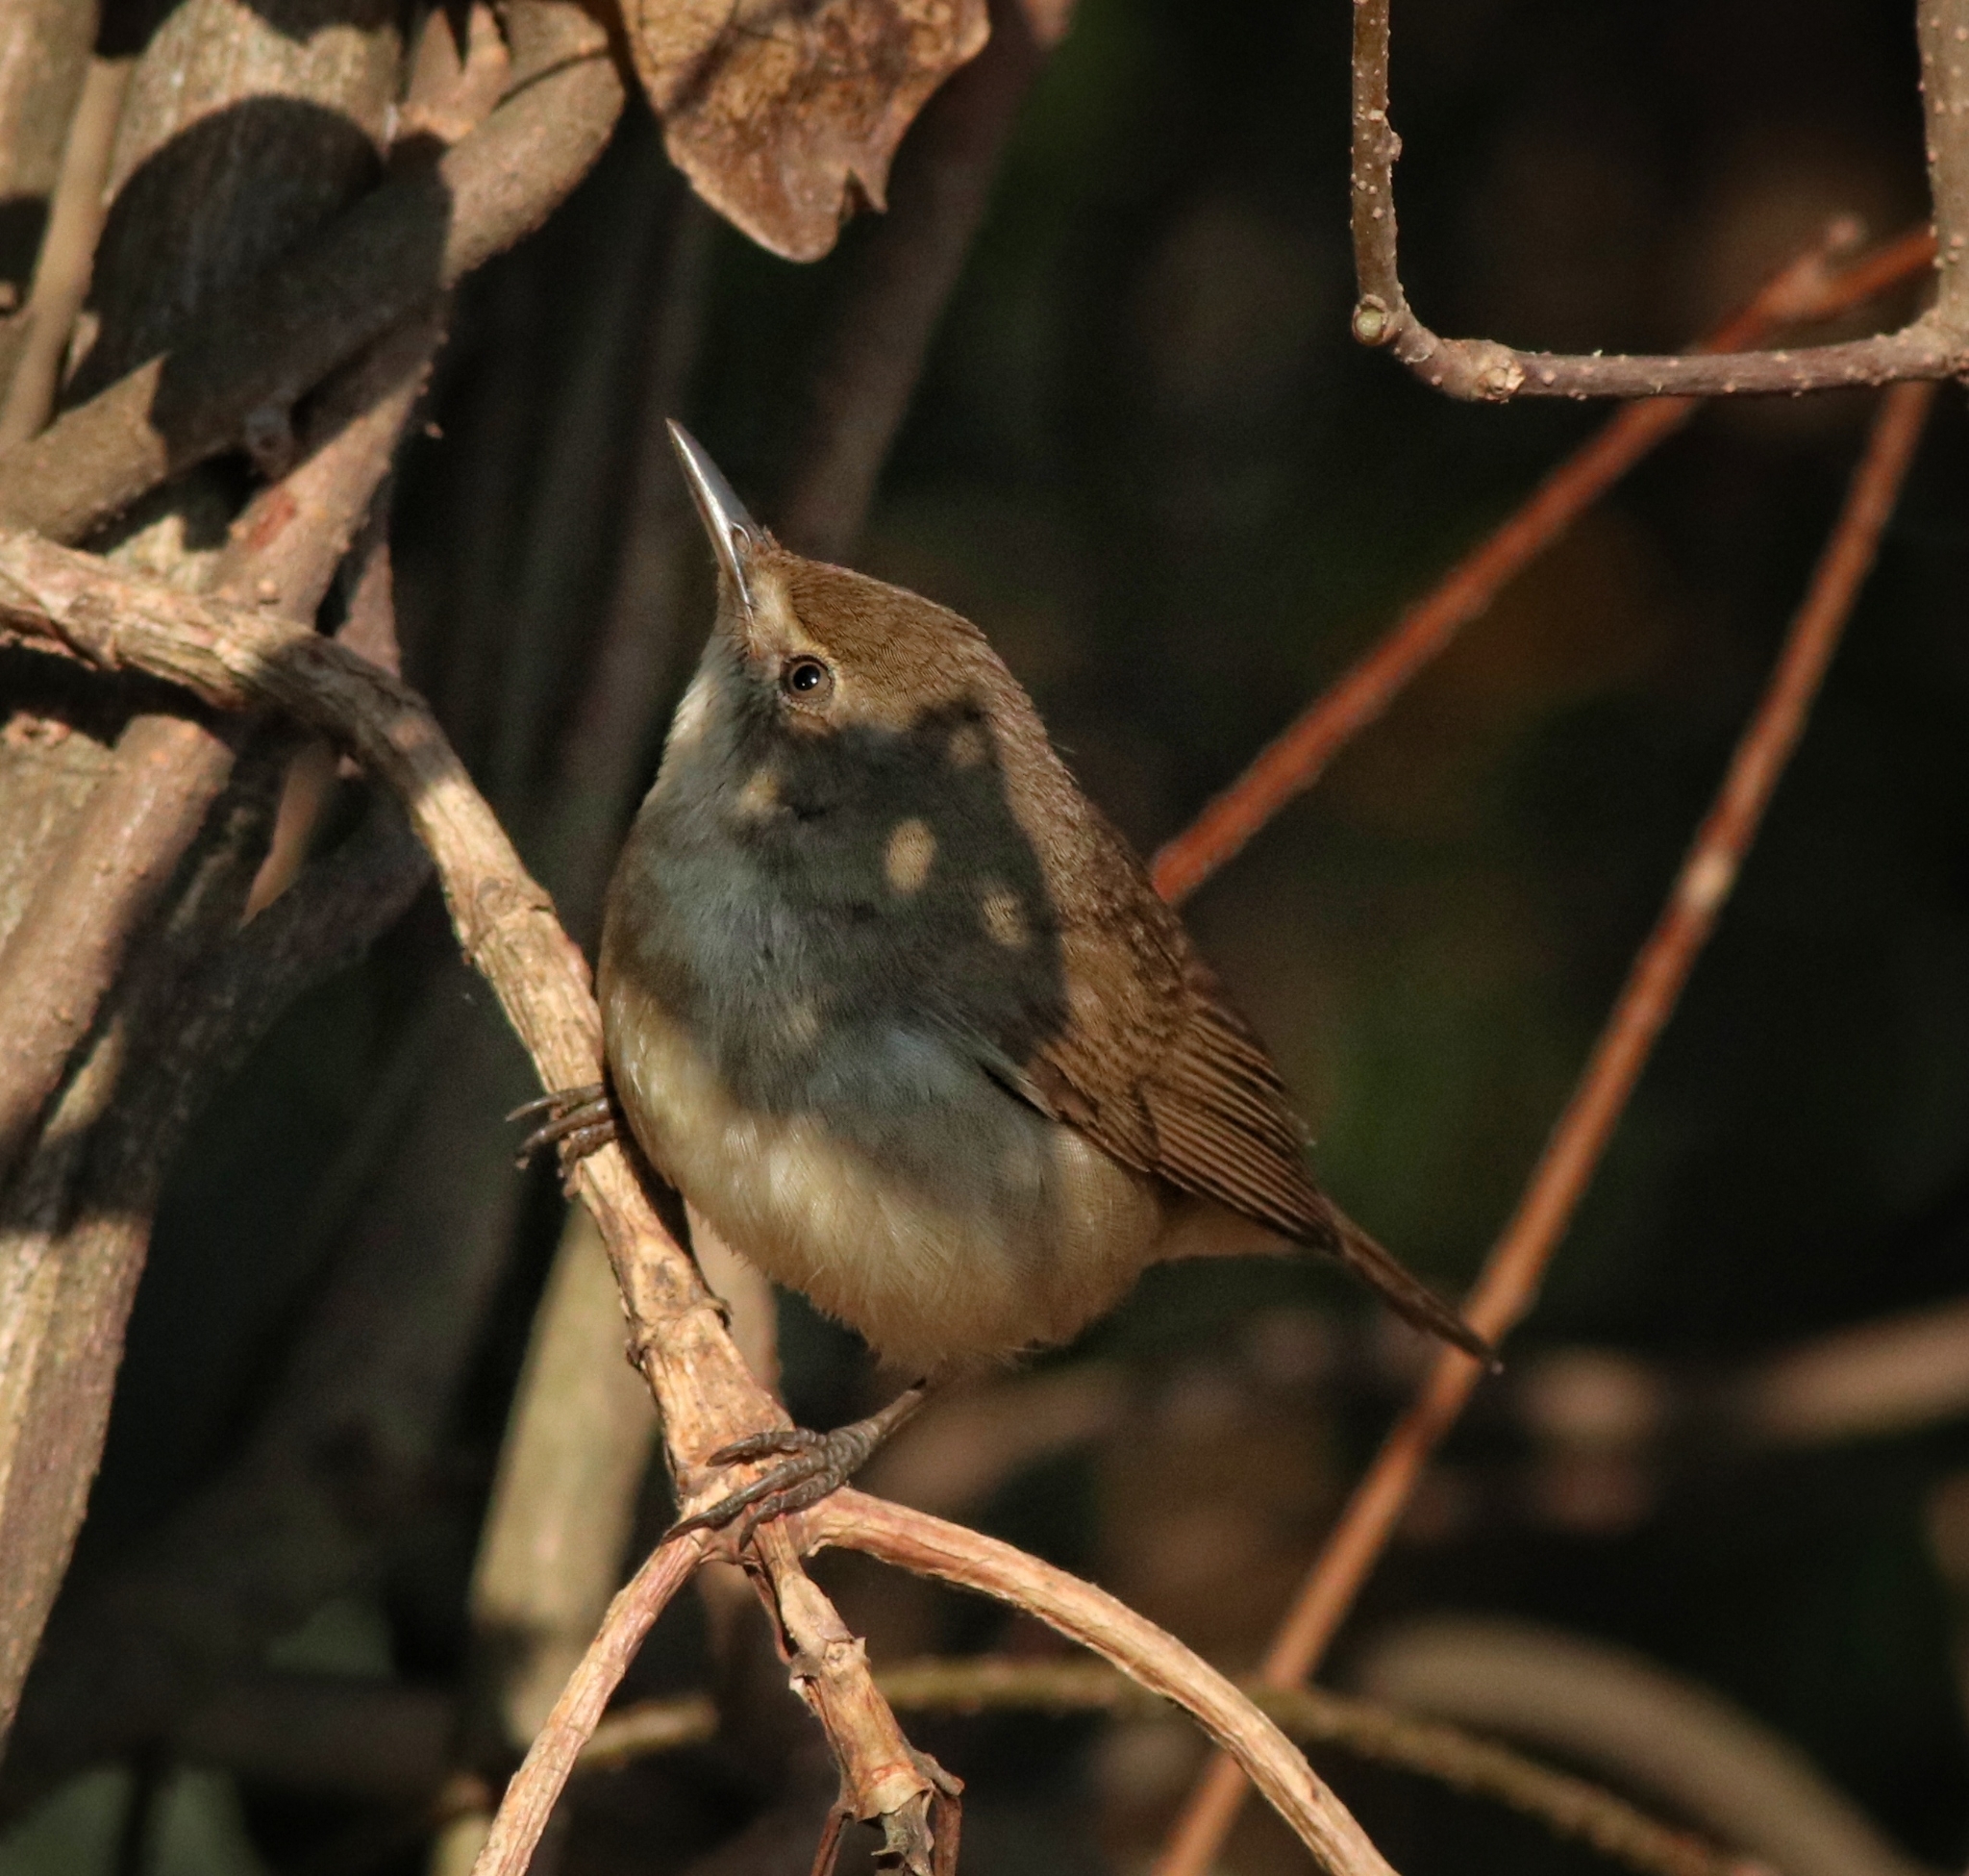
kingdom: Animalia
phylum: Chordata
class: Aves
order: Passeriformes
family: Acrocephalidae
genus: Acrocephalus
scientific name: Acrocephalus dumetorum
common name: Blyth's reed warbler
